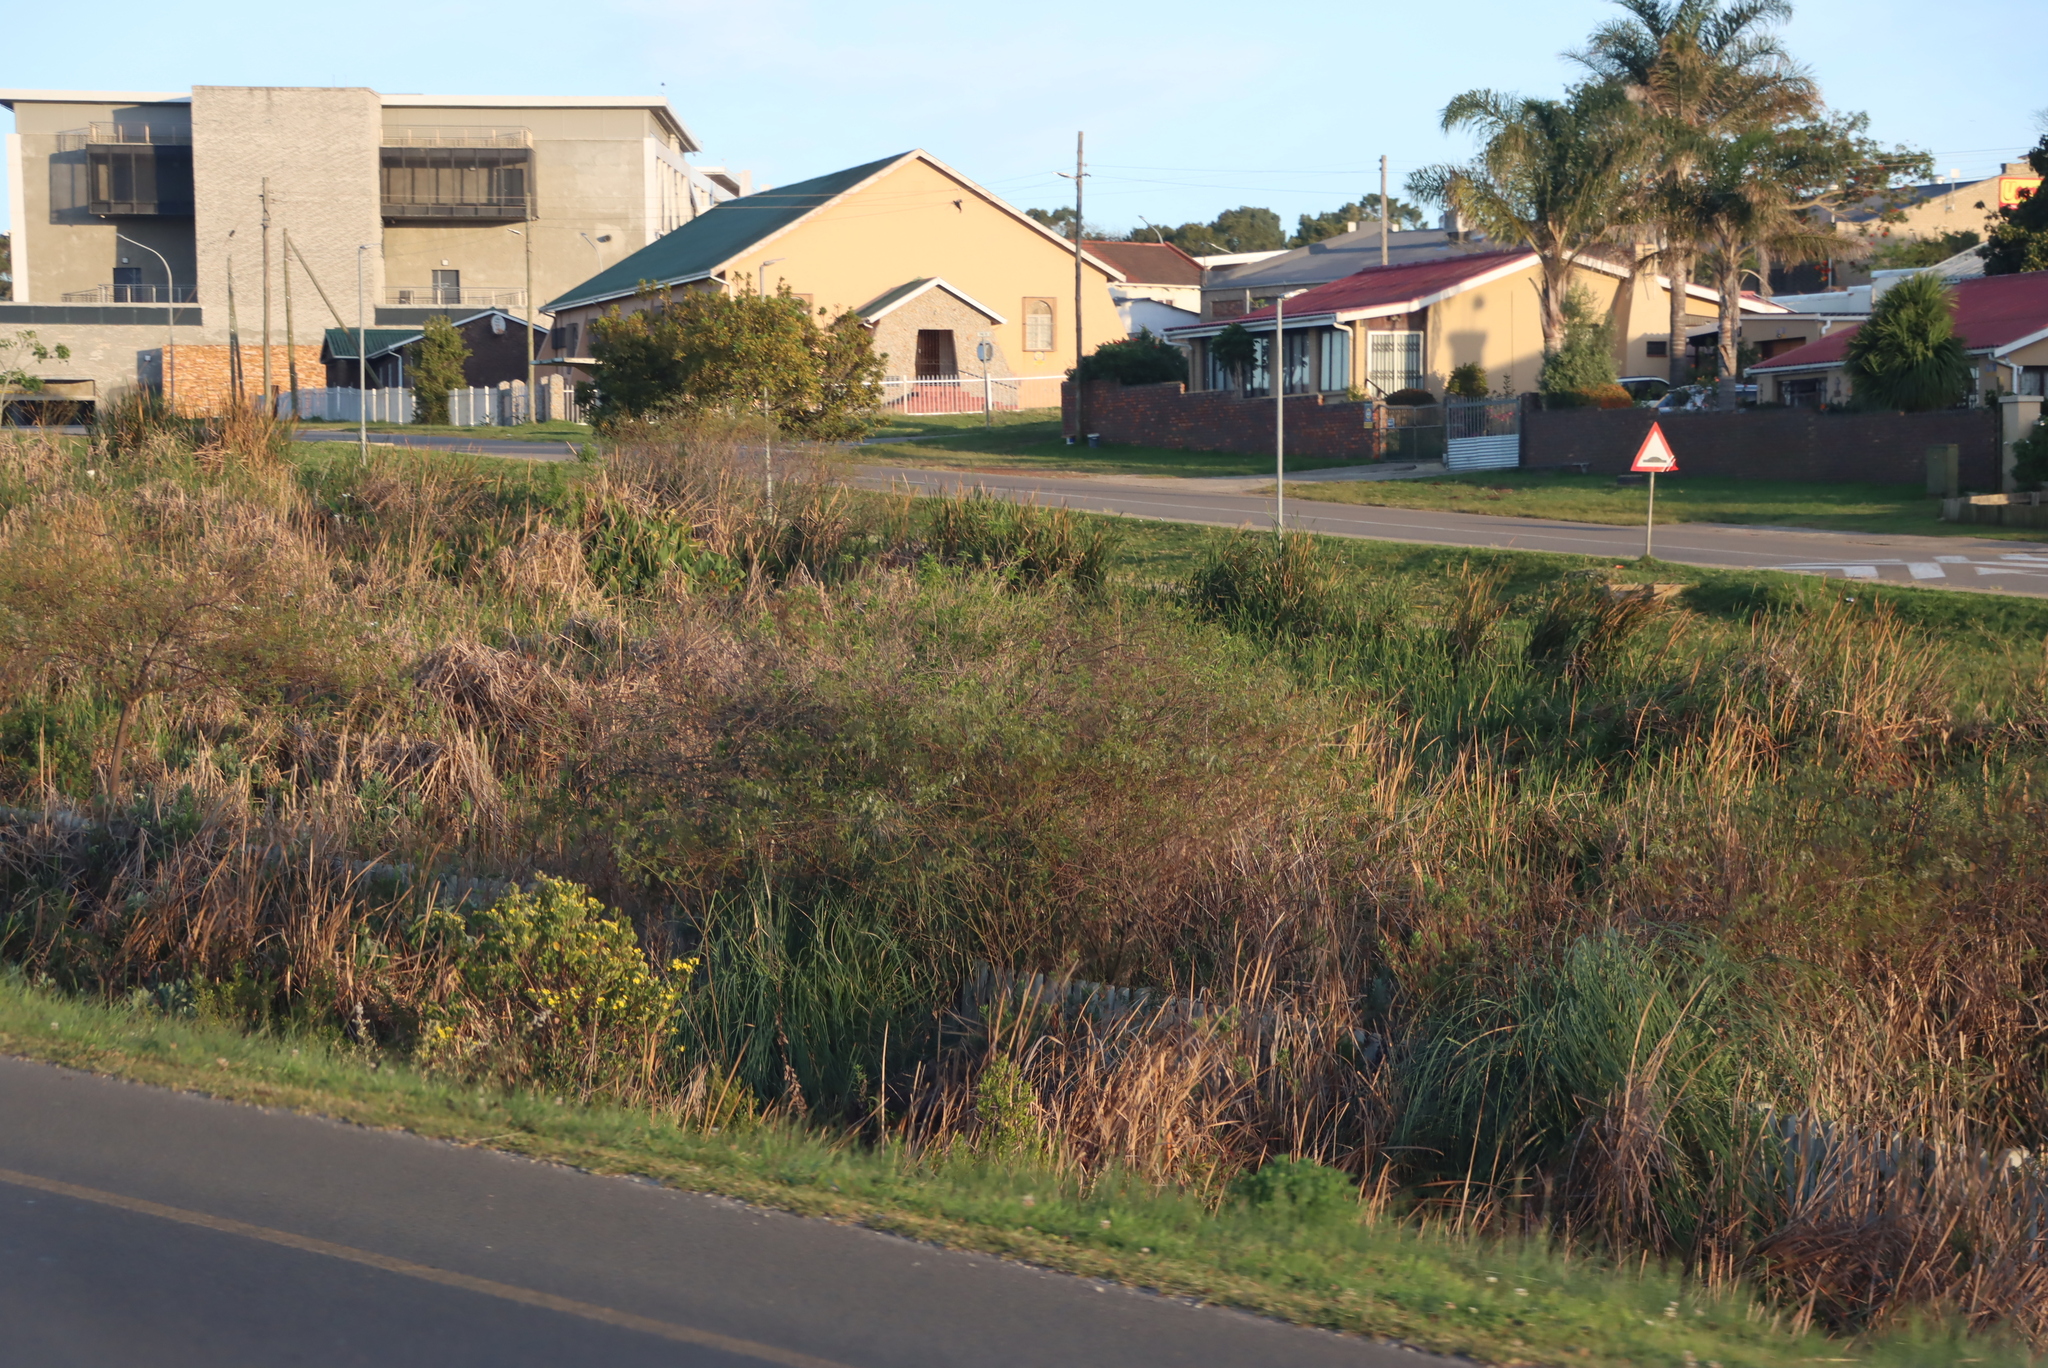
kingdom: Plantae
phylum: Tracheophyta
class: Magnoliopsida
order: Fabales
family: Fabaceae
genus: Sesbania
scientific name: Sesbania punicea
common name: Rattlebox
